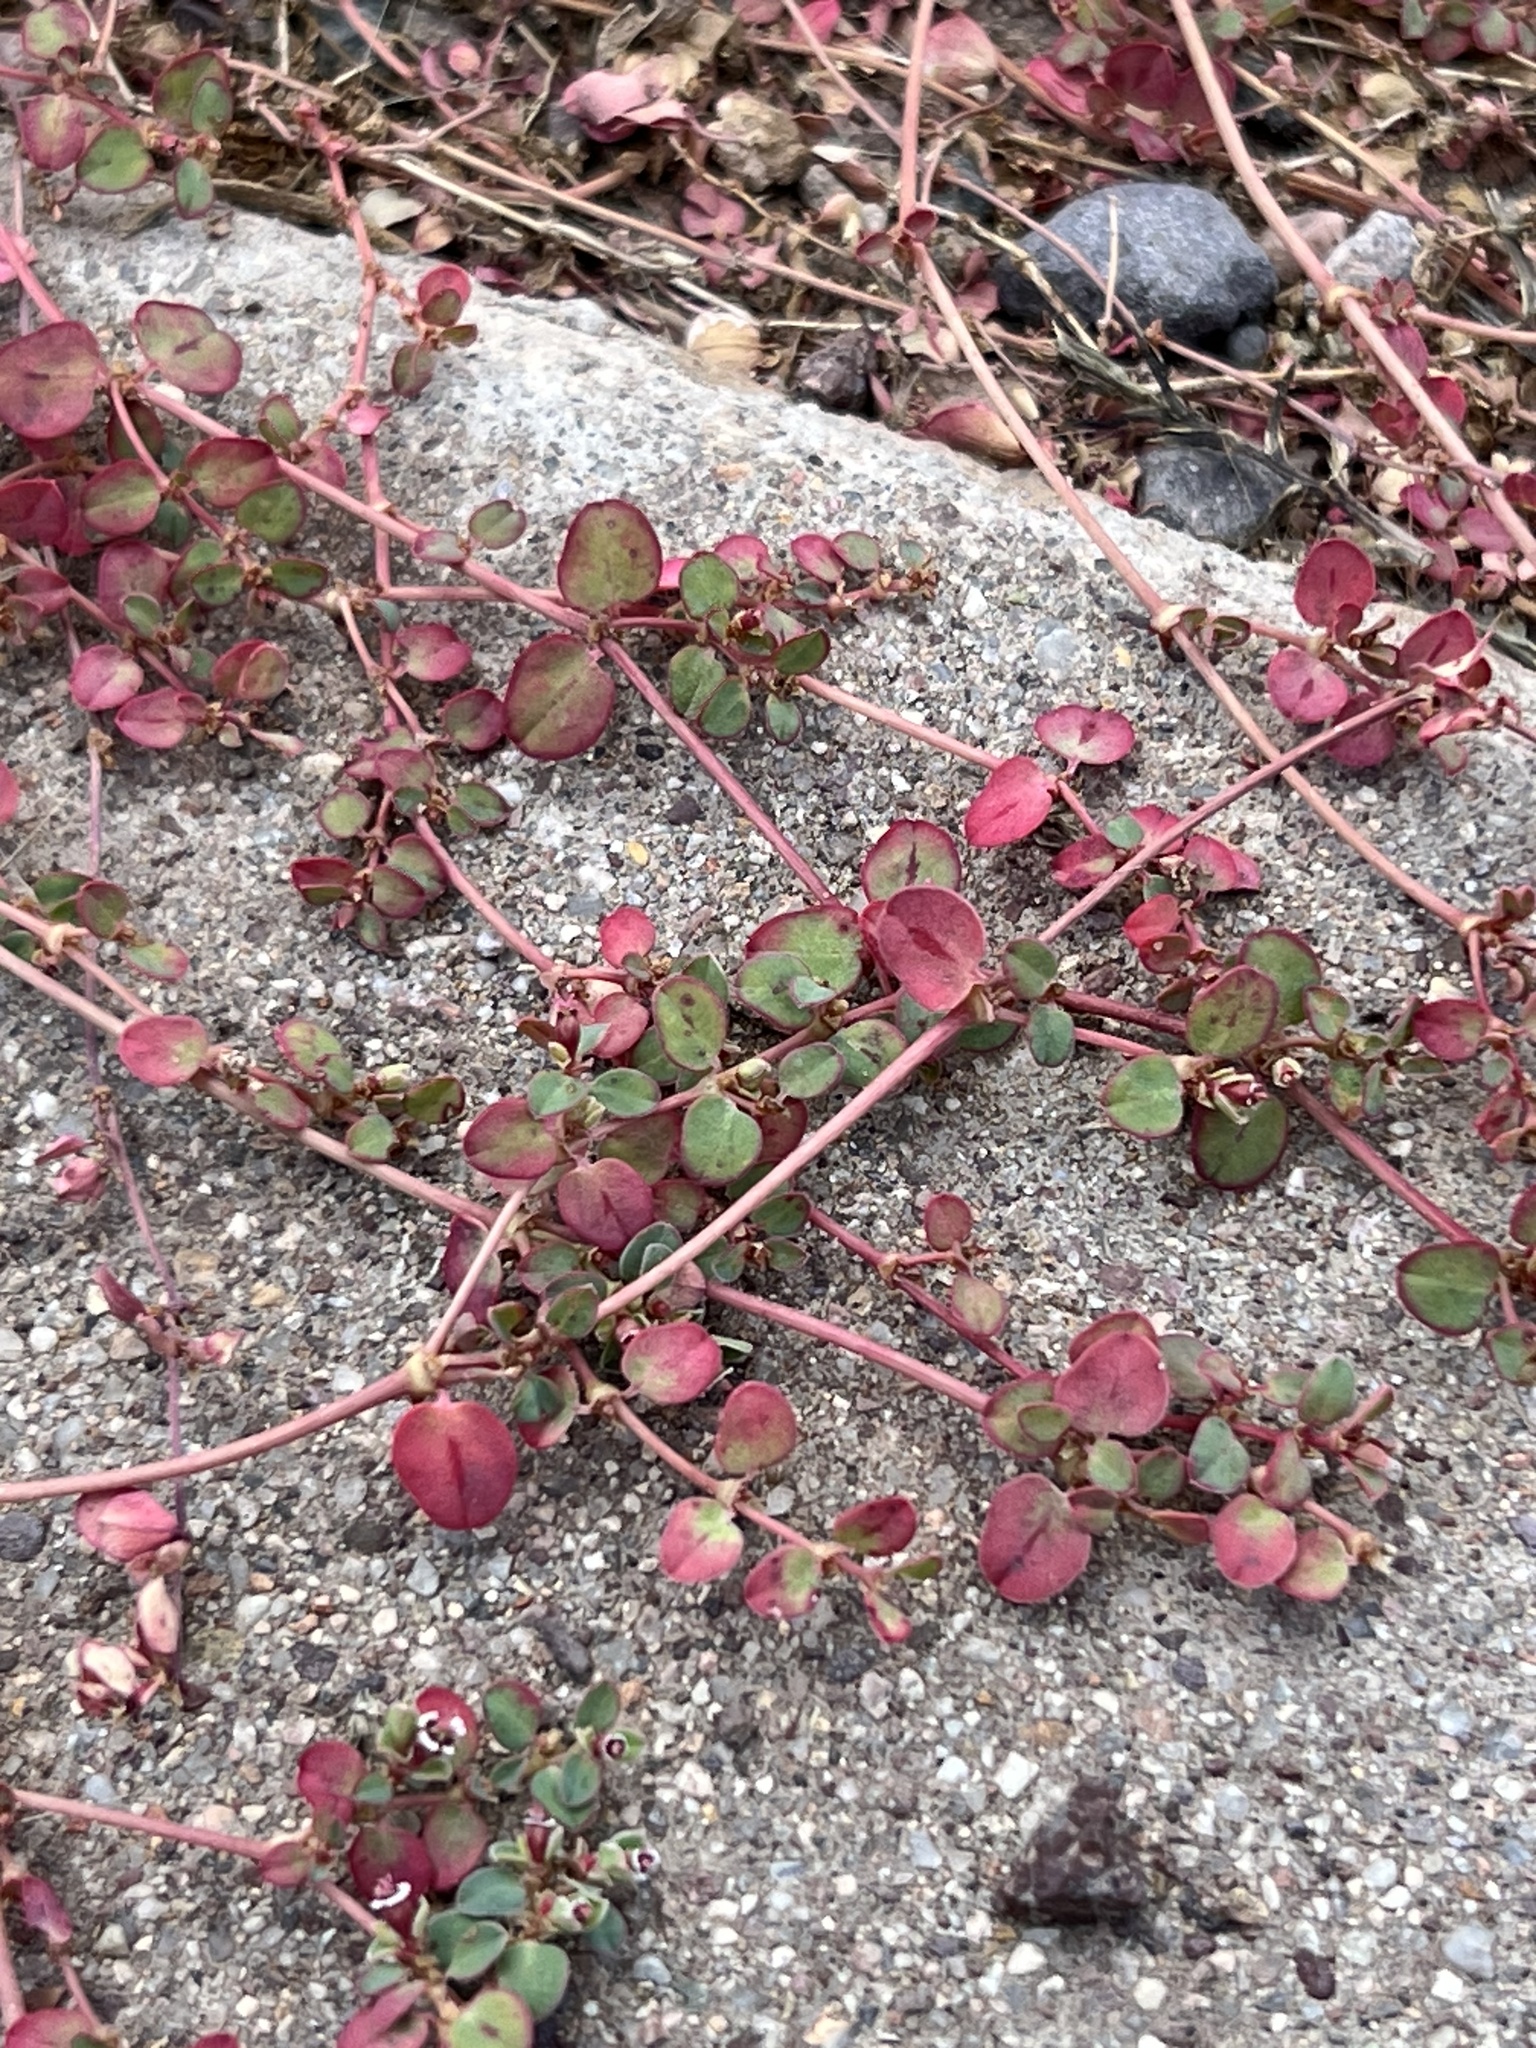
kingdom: Plantae
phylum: Tracheophyta
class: Magnoliopsida
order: Malpighiales
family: Euphorbiaceae
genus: Euphorbia
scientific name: Euphorbia albomarginata
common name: Whitemargin sandmat
